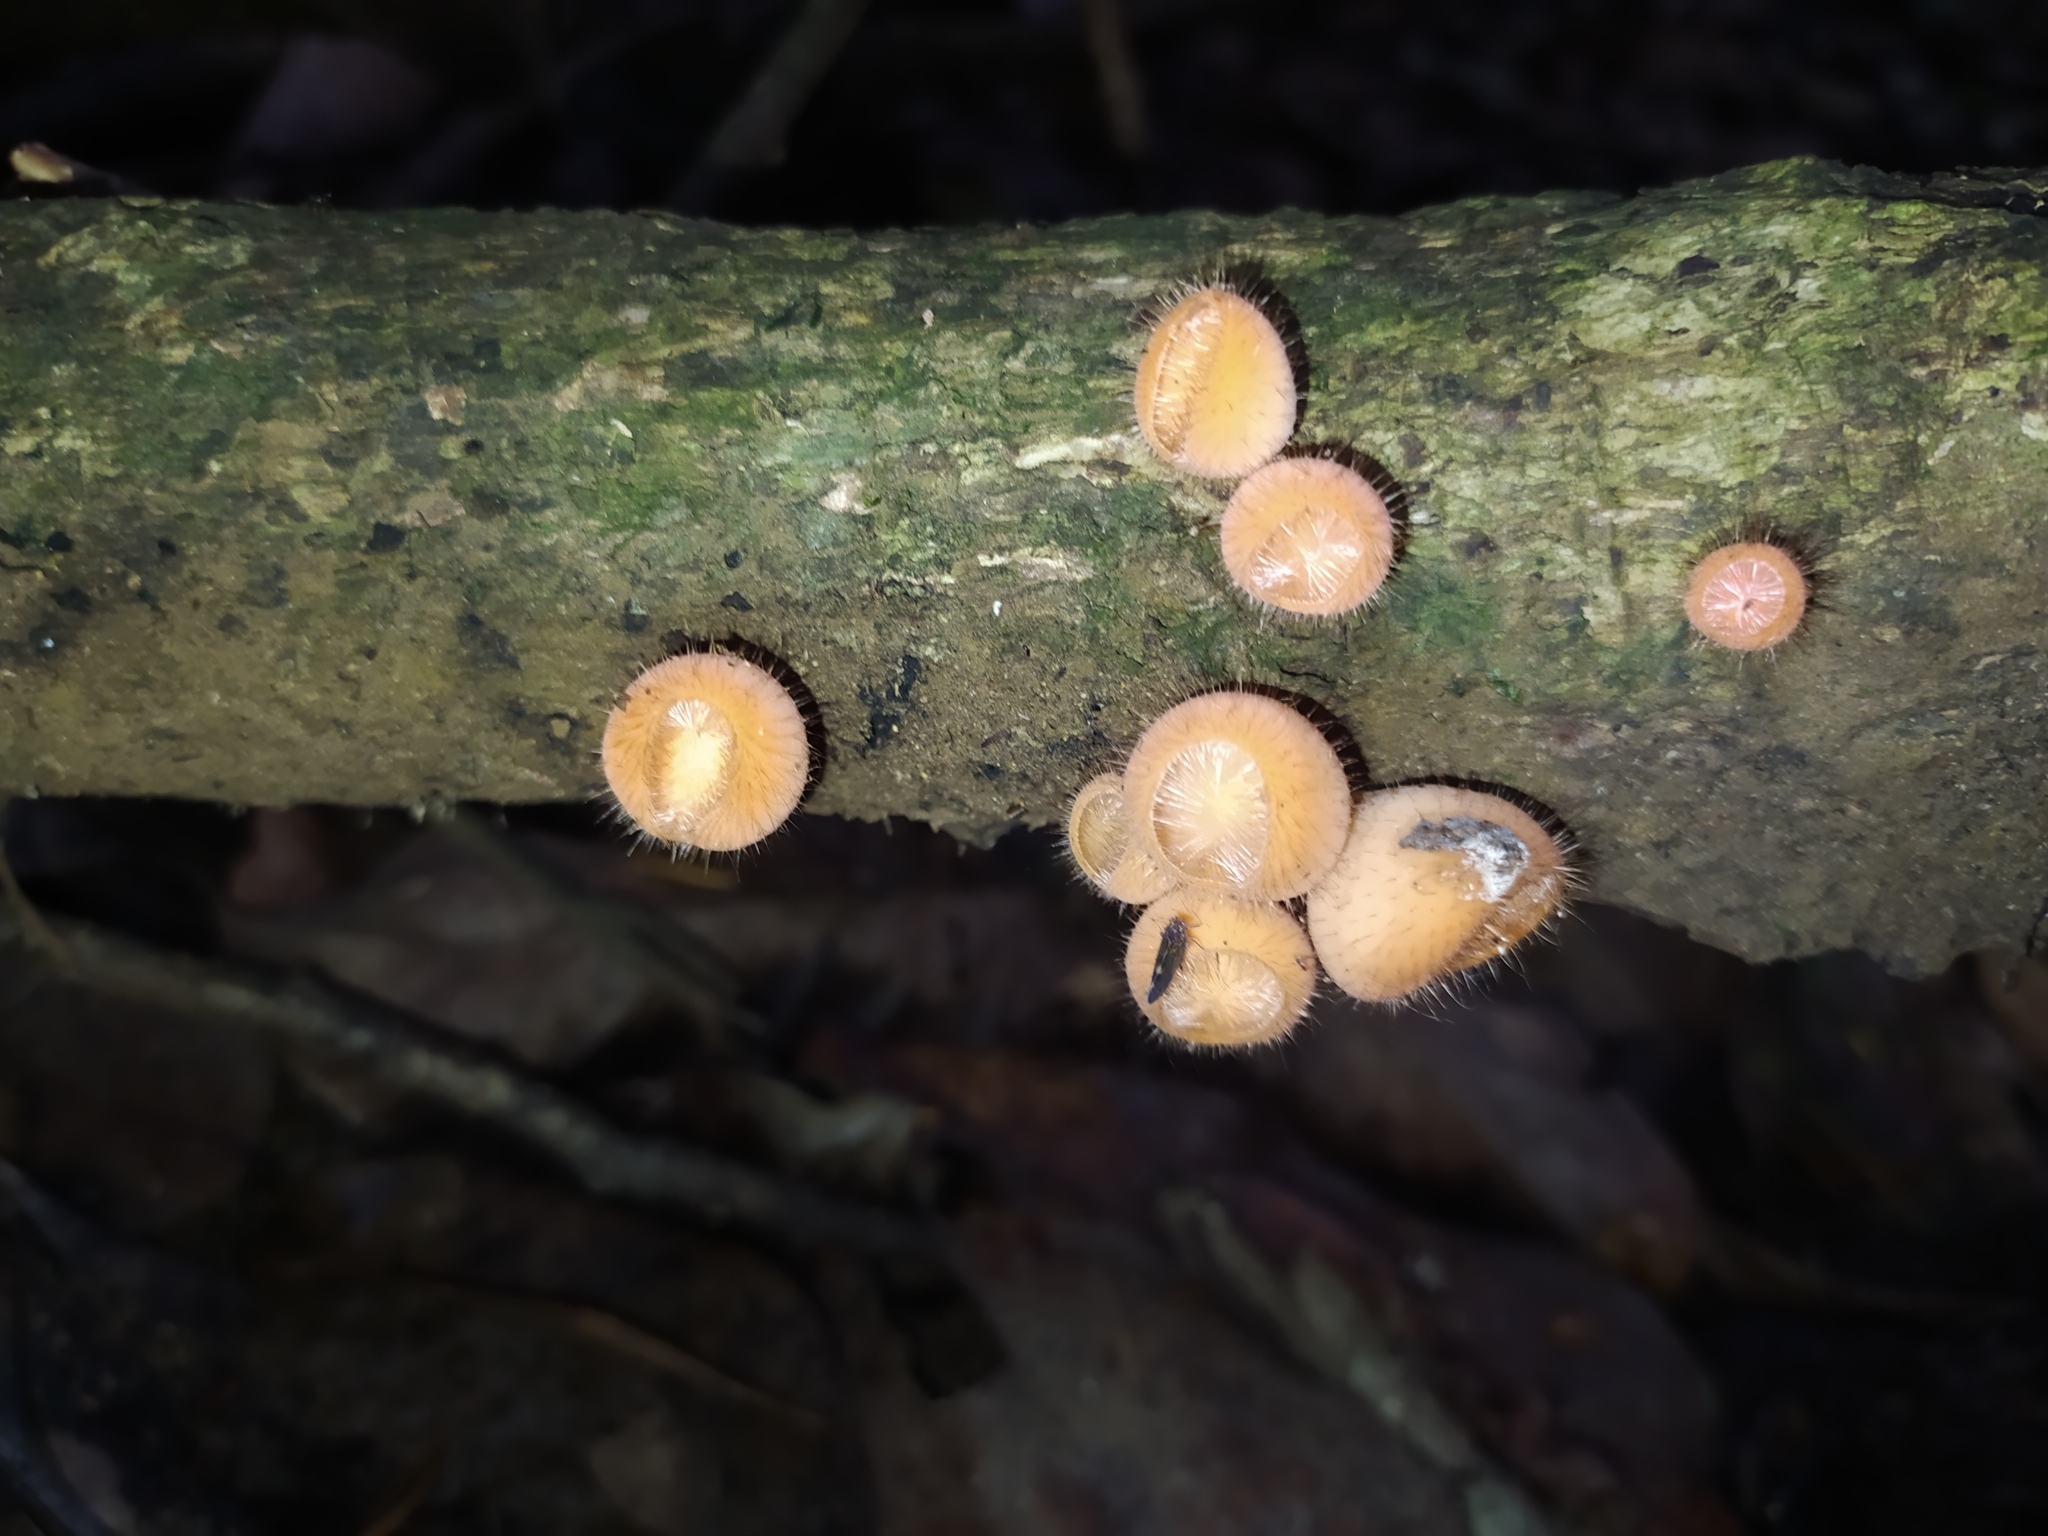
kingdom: Fungi
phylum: Ascomycota
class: Pezizomycetes
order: Pezizales
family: Sarcoscyphaceae
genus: Cookeina
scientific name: Cookeina tricholoma
